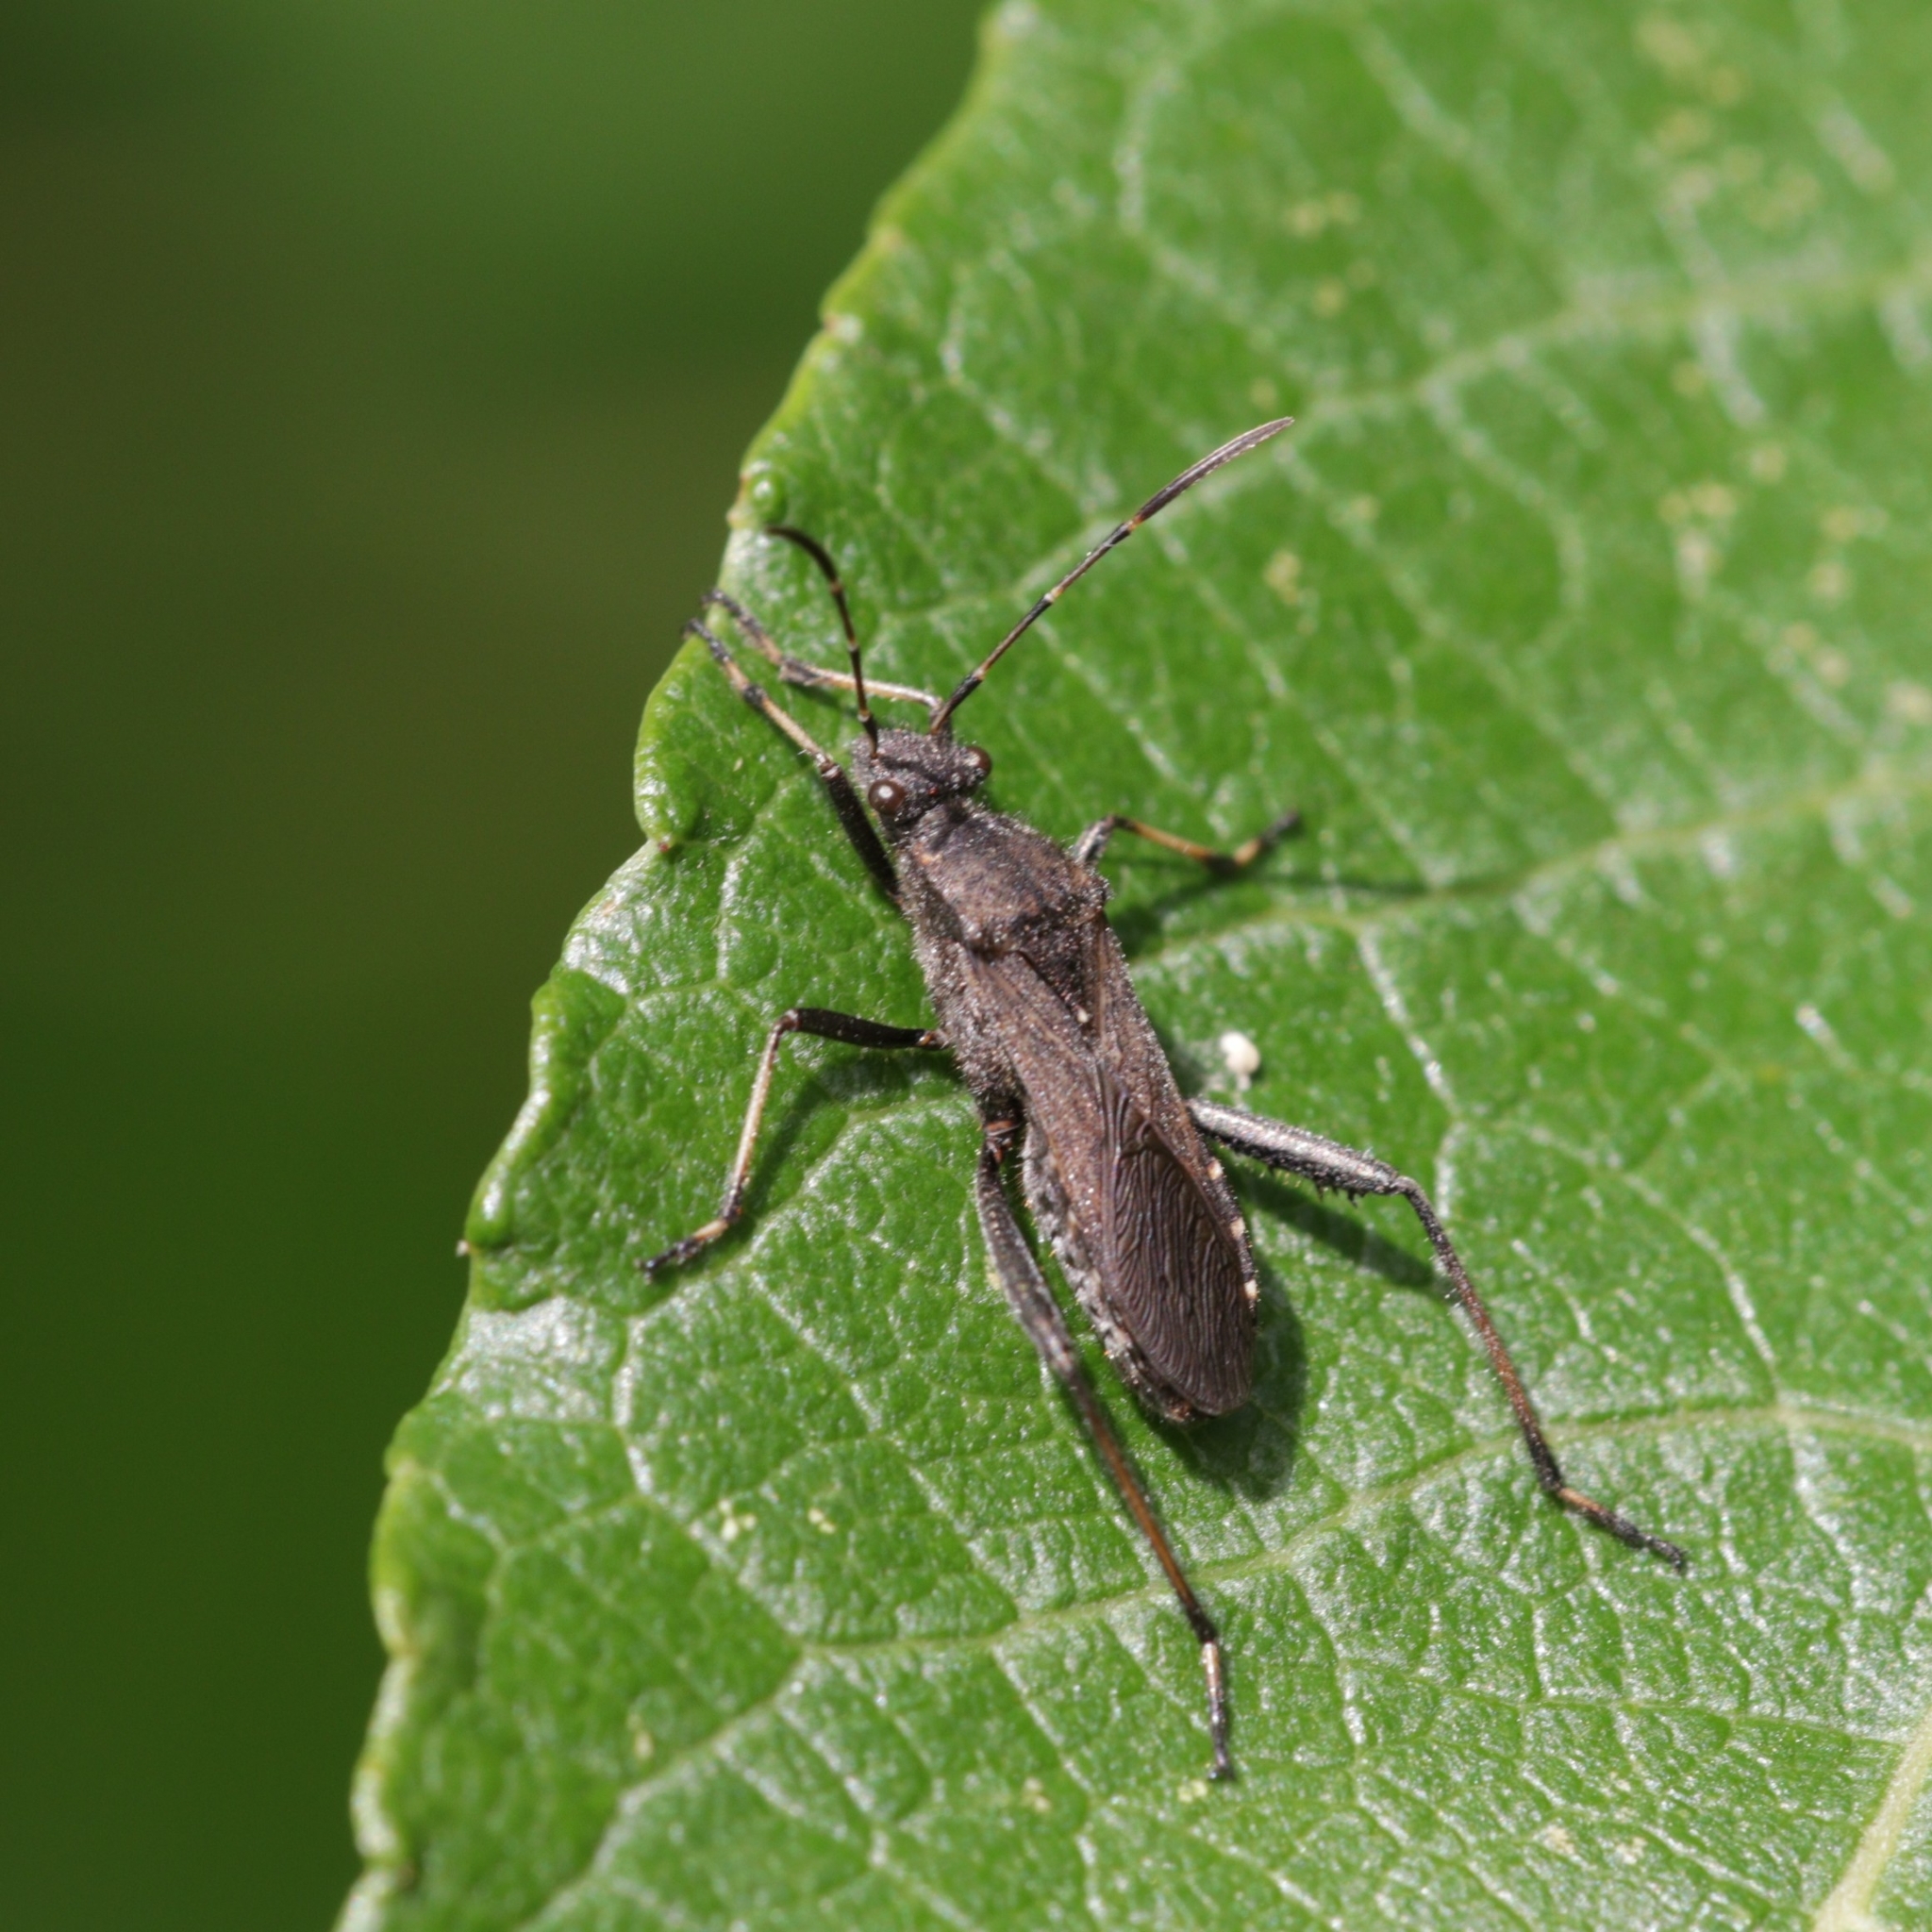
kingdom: Animalia
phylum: Arthropoda
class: Insecta
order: Hemiptera
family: Alydidae
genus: Alydus
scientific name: Alydus calcaratus
